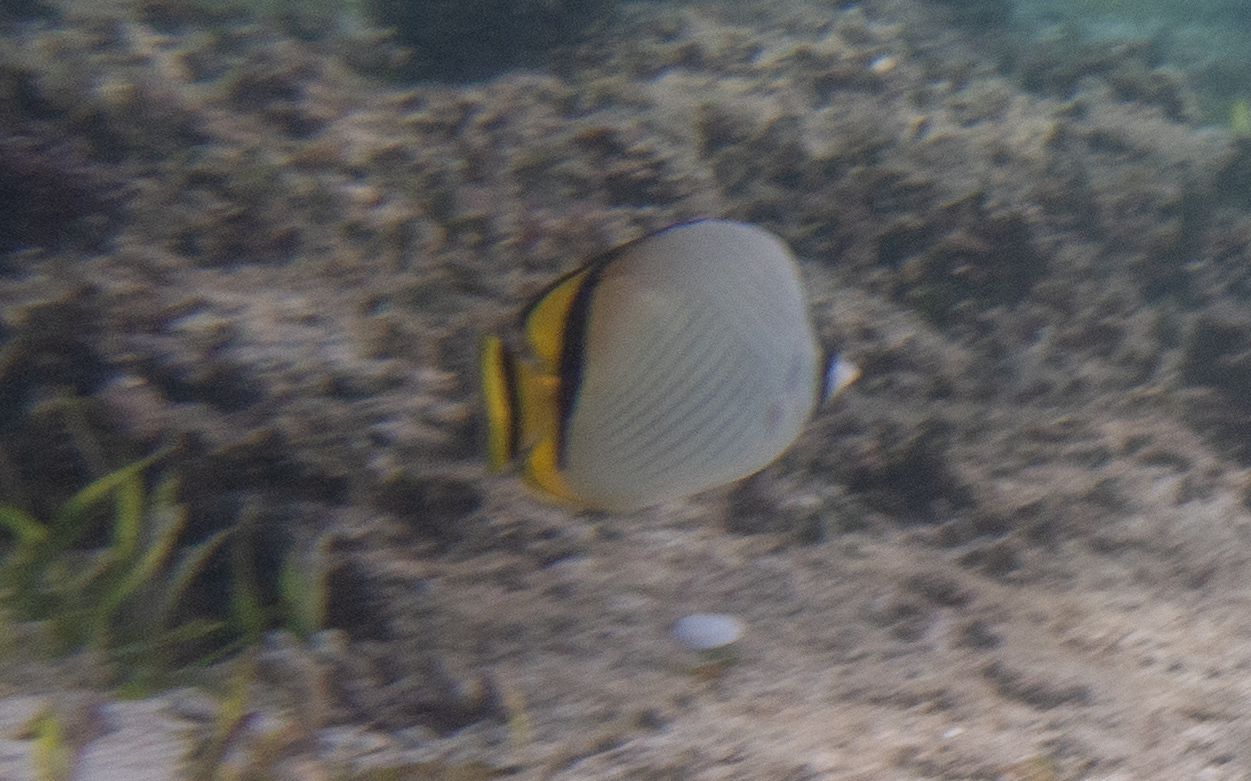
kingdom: Animalia
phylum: Chordata
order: Perciformes
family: Chaetodontidae
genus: Chaetodon
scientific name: Chaetodon vagabundus
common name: Vagabond butterflyfish
